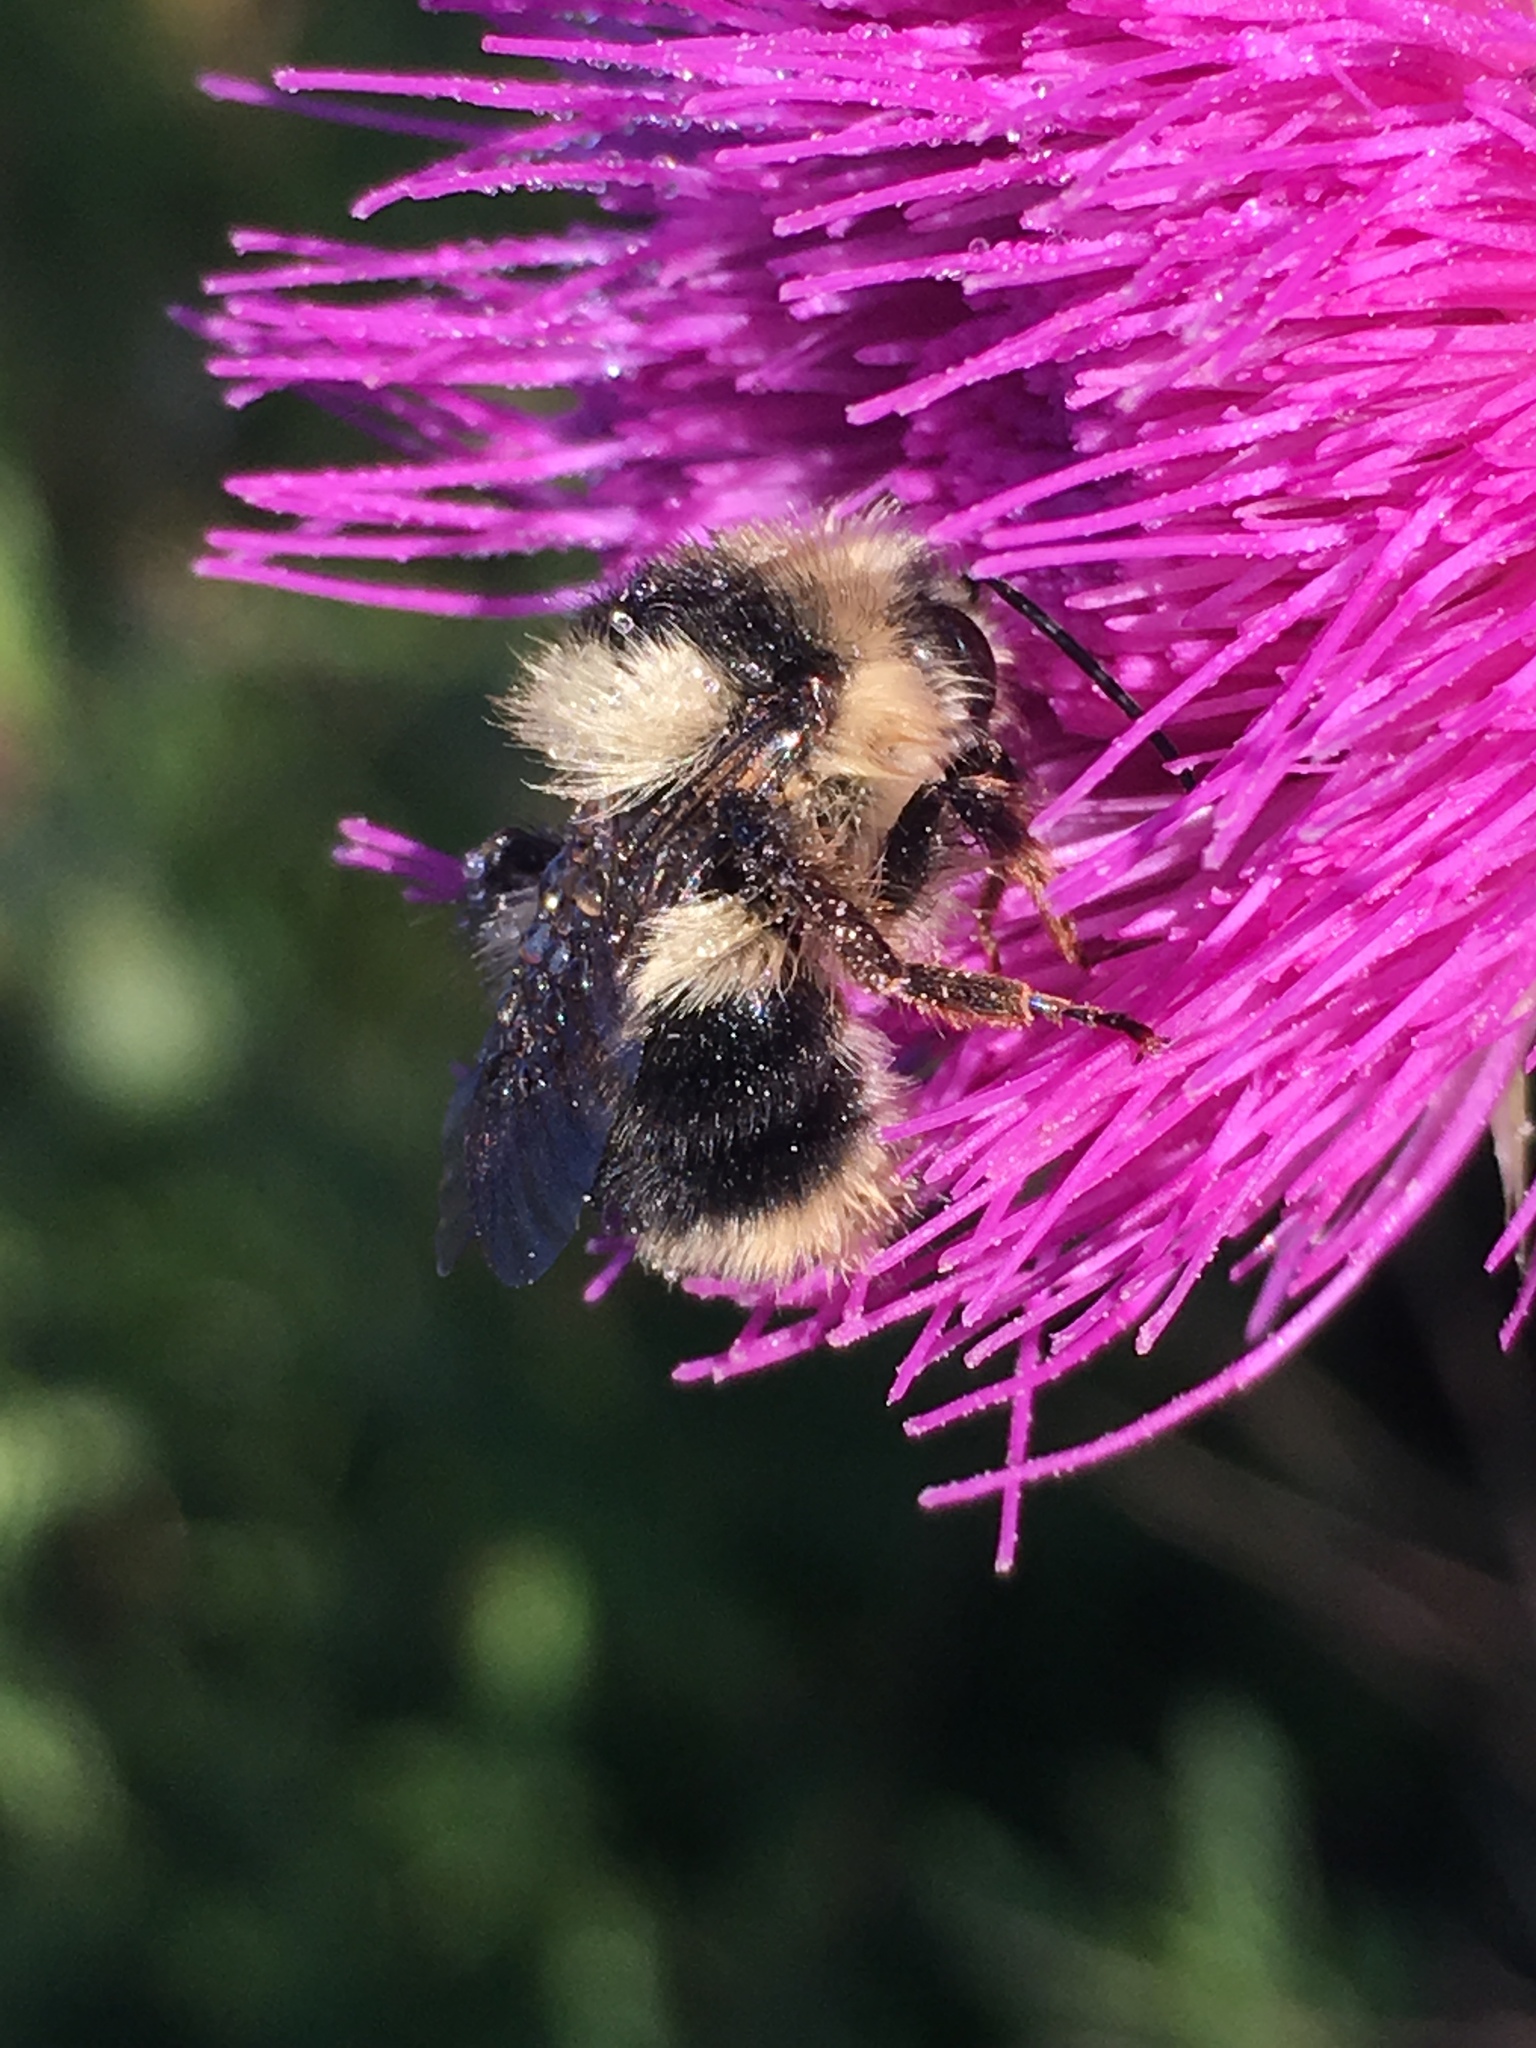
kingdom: Animalia
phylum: Arthropoda
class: Insecta
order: Hymenoptera
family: Apidae
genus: Bombus
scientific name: Bombus melanopygus
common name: Black tail bumble bee
